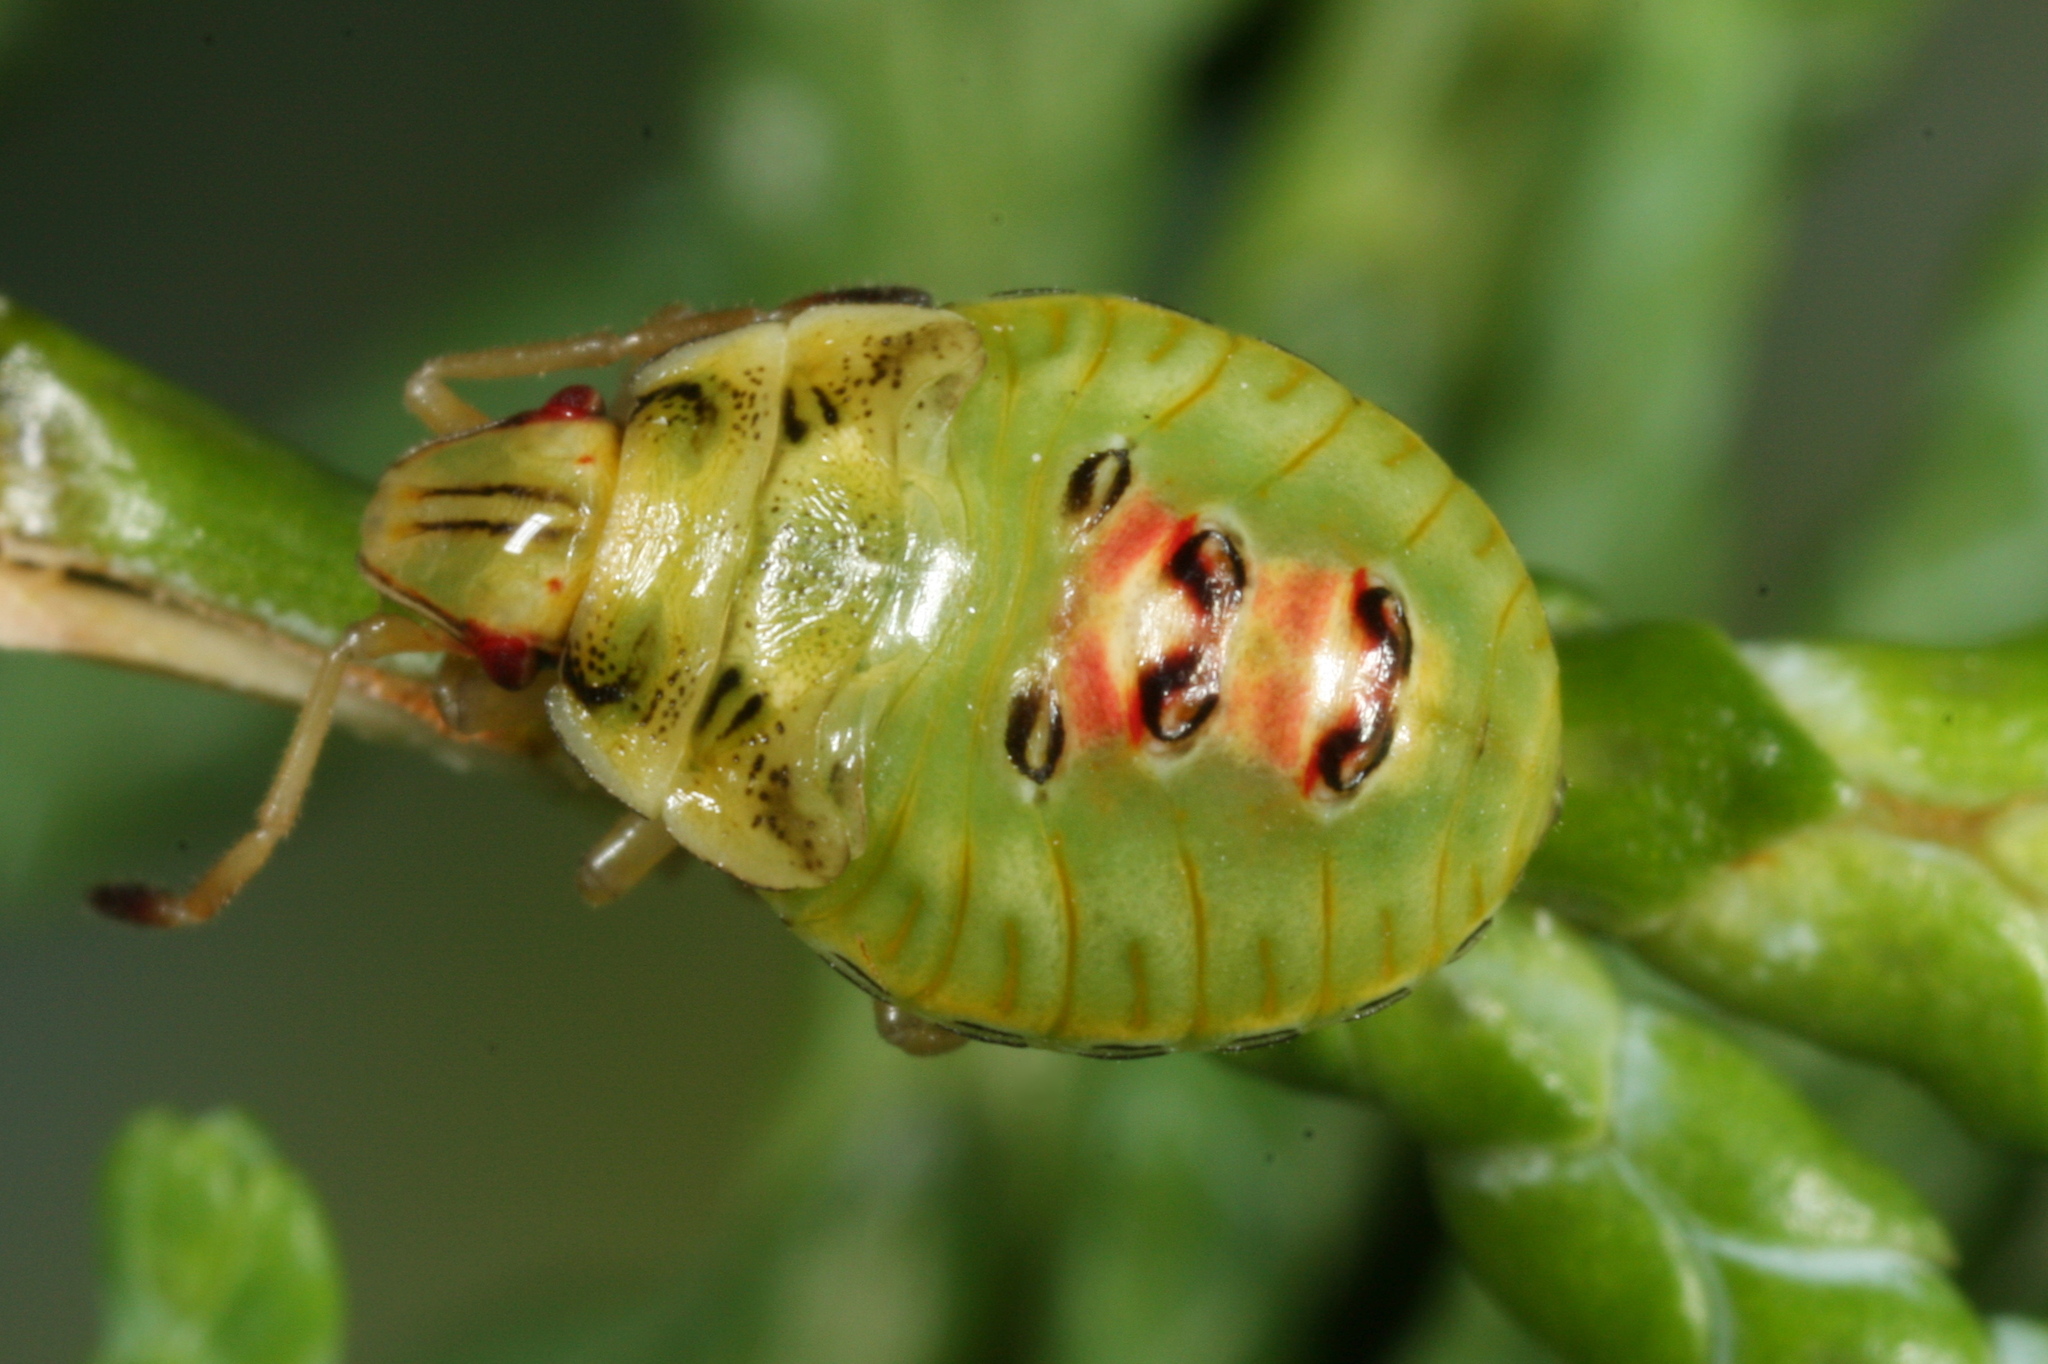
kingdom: Animalia
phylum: Arthropoda
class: Insecta
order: Hemiptera
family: Acanthosomatidae
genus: Cyphostethus
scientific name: Cyphostethus tristriatus
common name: Juniper shieldbug
